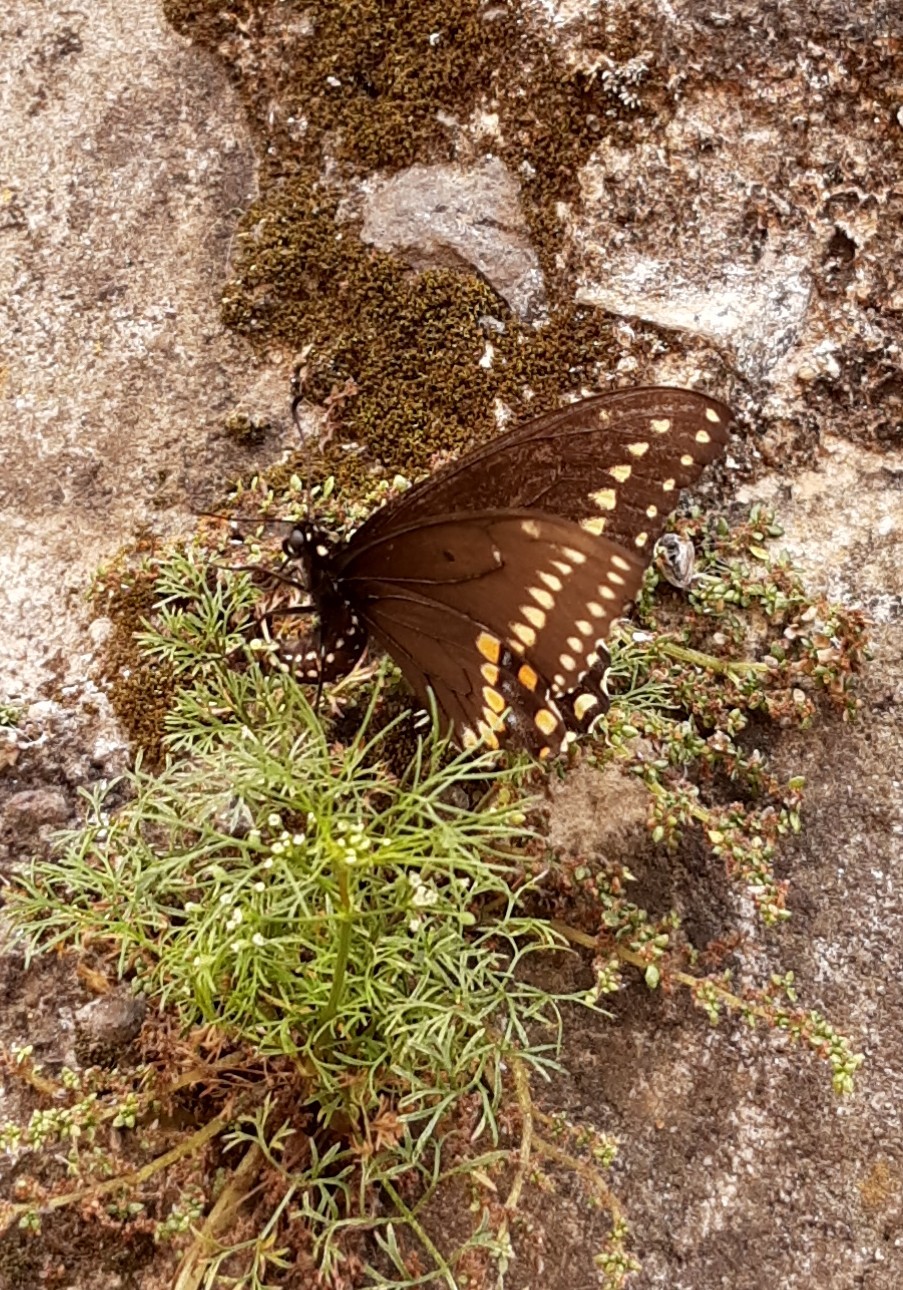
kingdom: Animalia
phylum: Arthropoda
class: Insecta
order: Lepidoptera
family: Papilionidae
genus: Papilio
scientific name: Papilio polyxenes
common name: Black swallowtail
